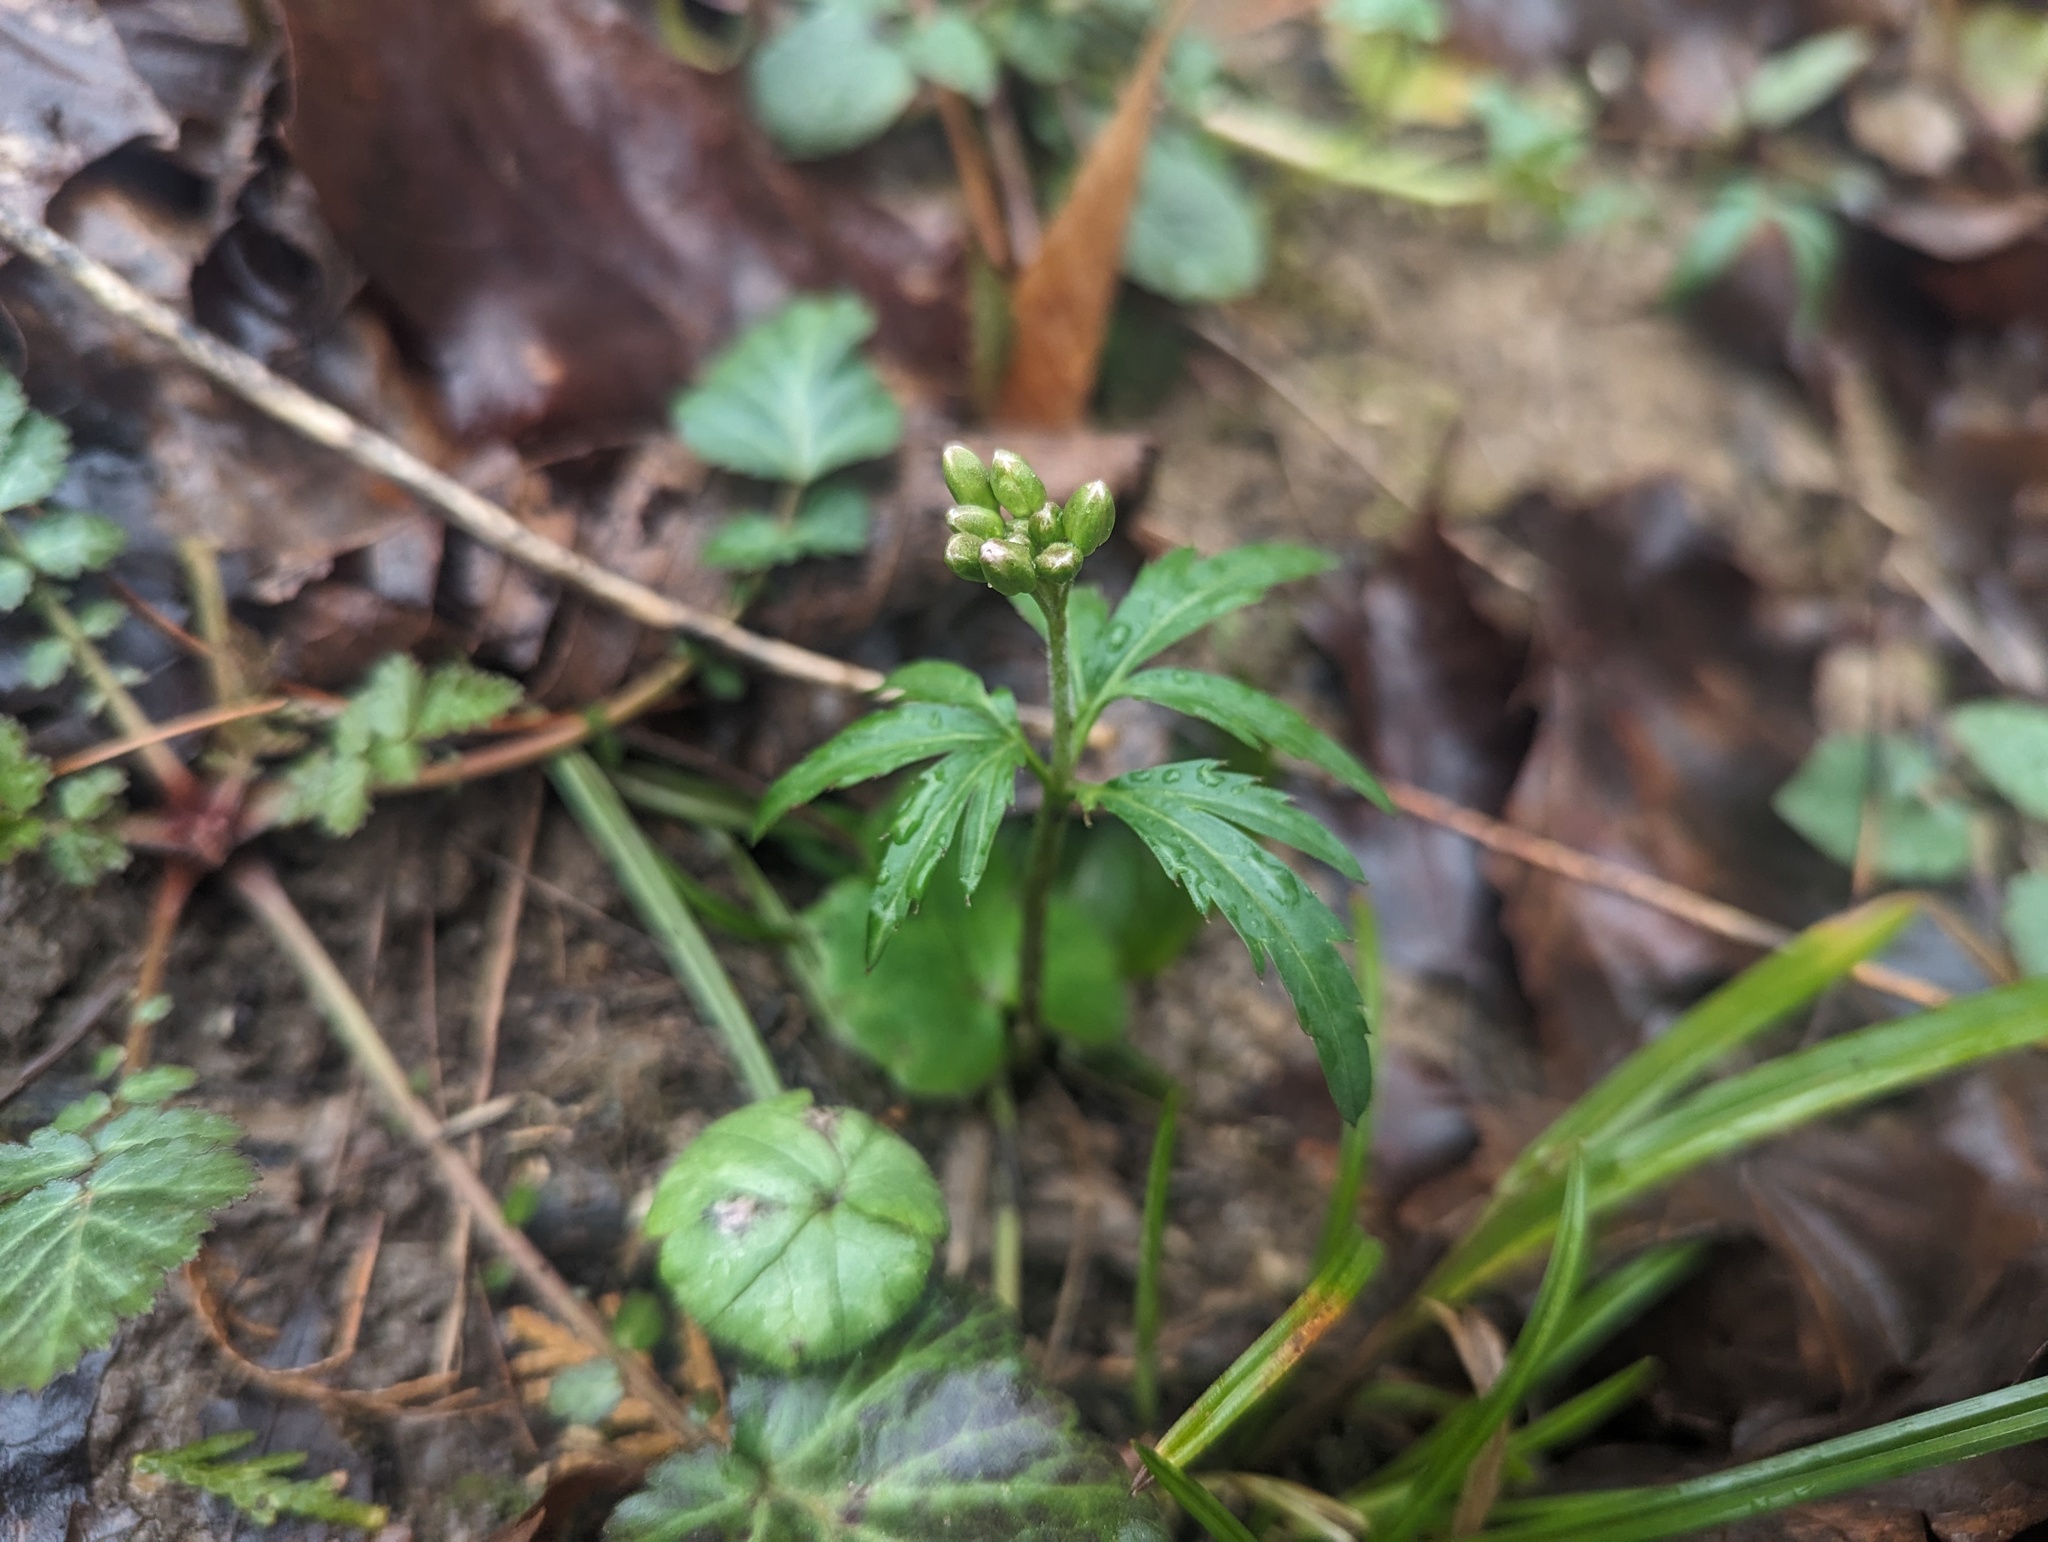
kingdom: Plantae
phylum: Tracheophyta
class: Magnoliopsida
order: Brassicales
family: Brassicaceae
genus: Cardamine
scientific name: Cardamine concatenata
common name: Cut-leaf toothcup
